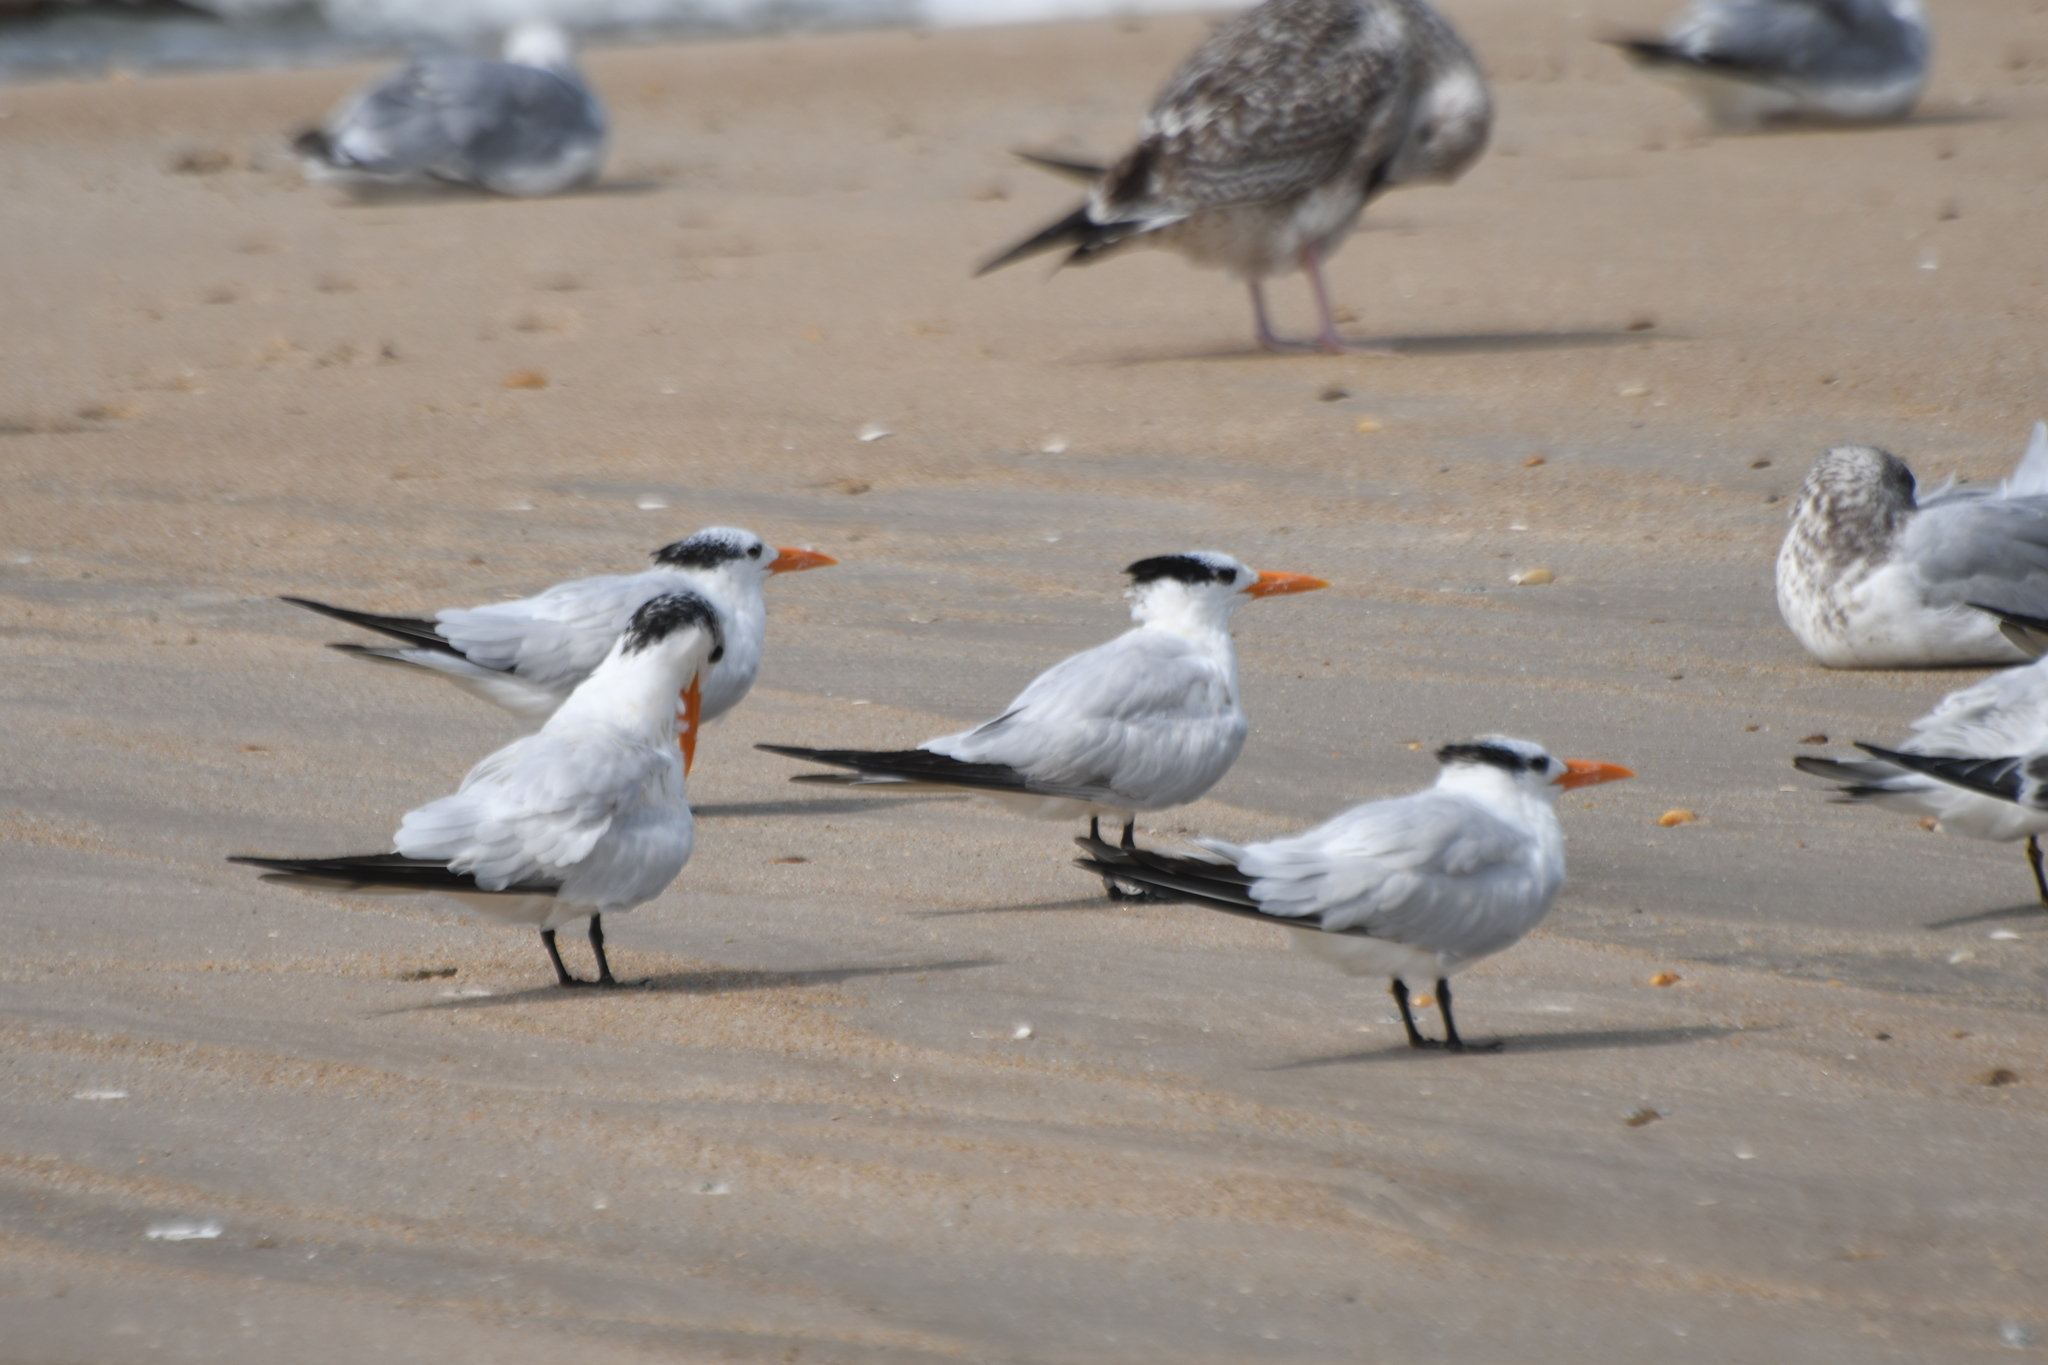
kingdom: Animalia
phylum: Chordata
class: Aves
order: Charadriiformes
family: Laridae
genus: Thalasseus
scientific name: Thalasseus maximus
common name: Royal tern
